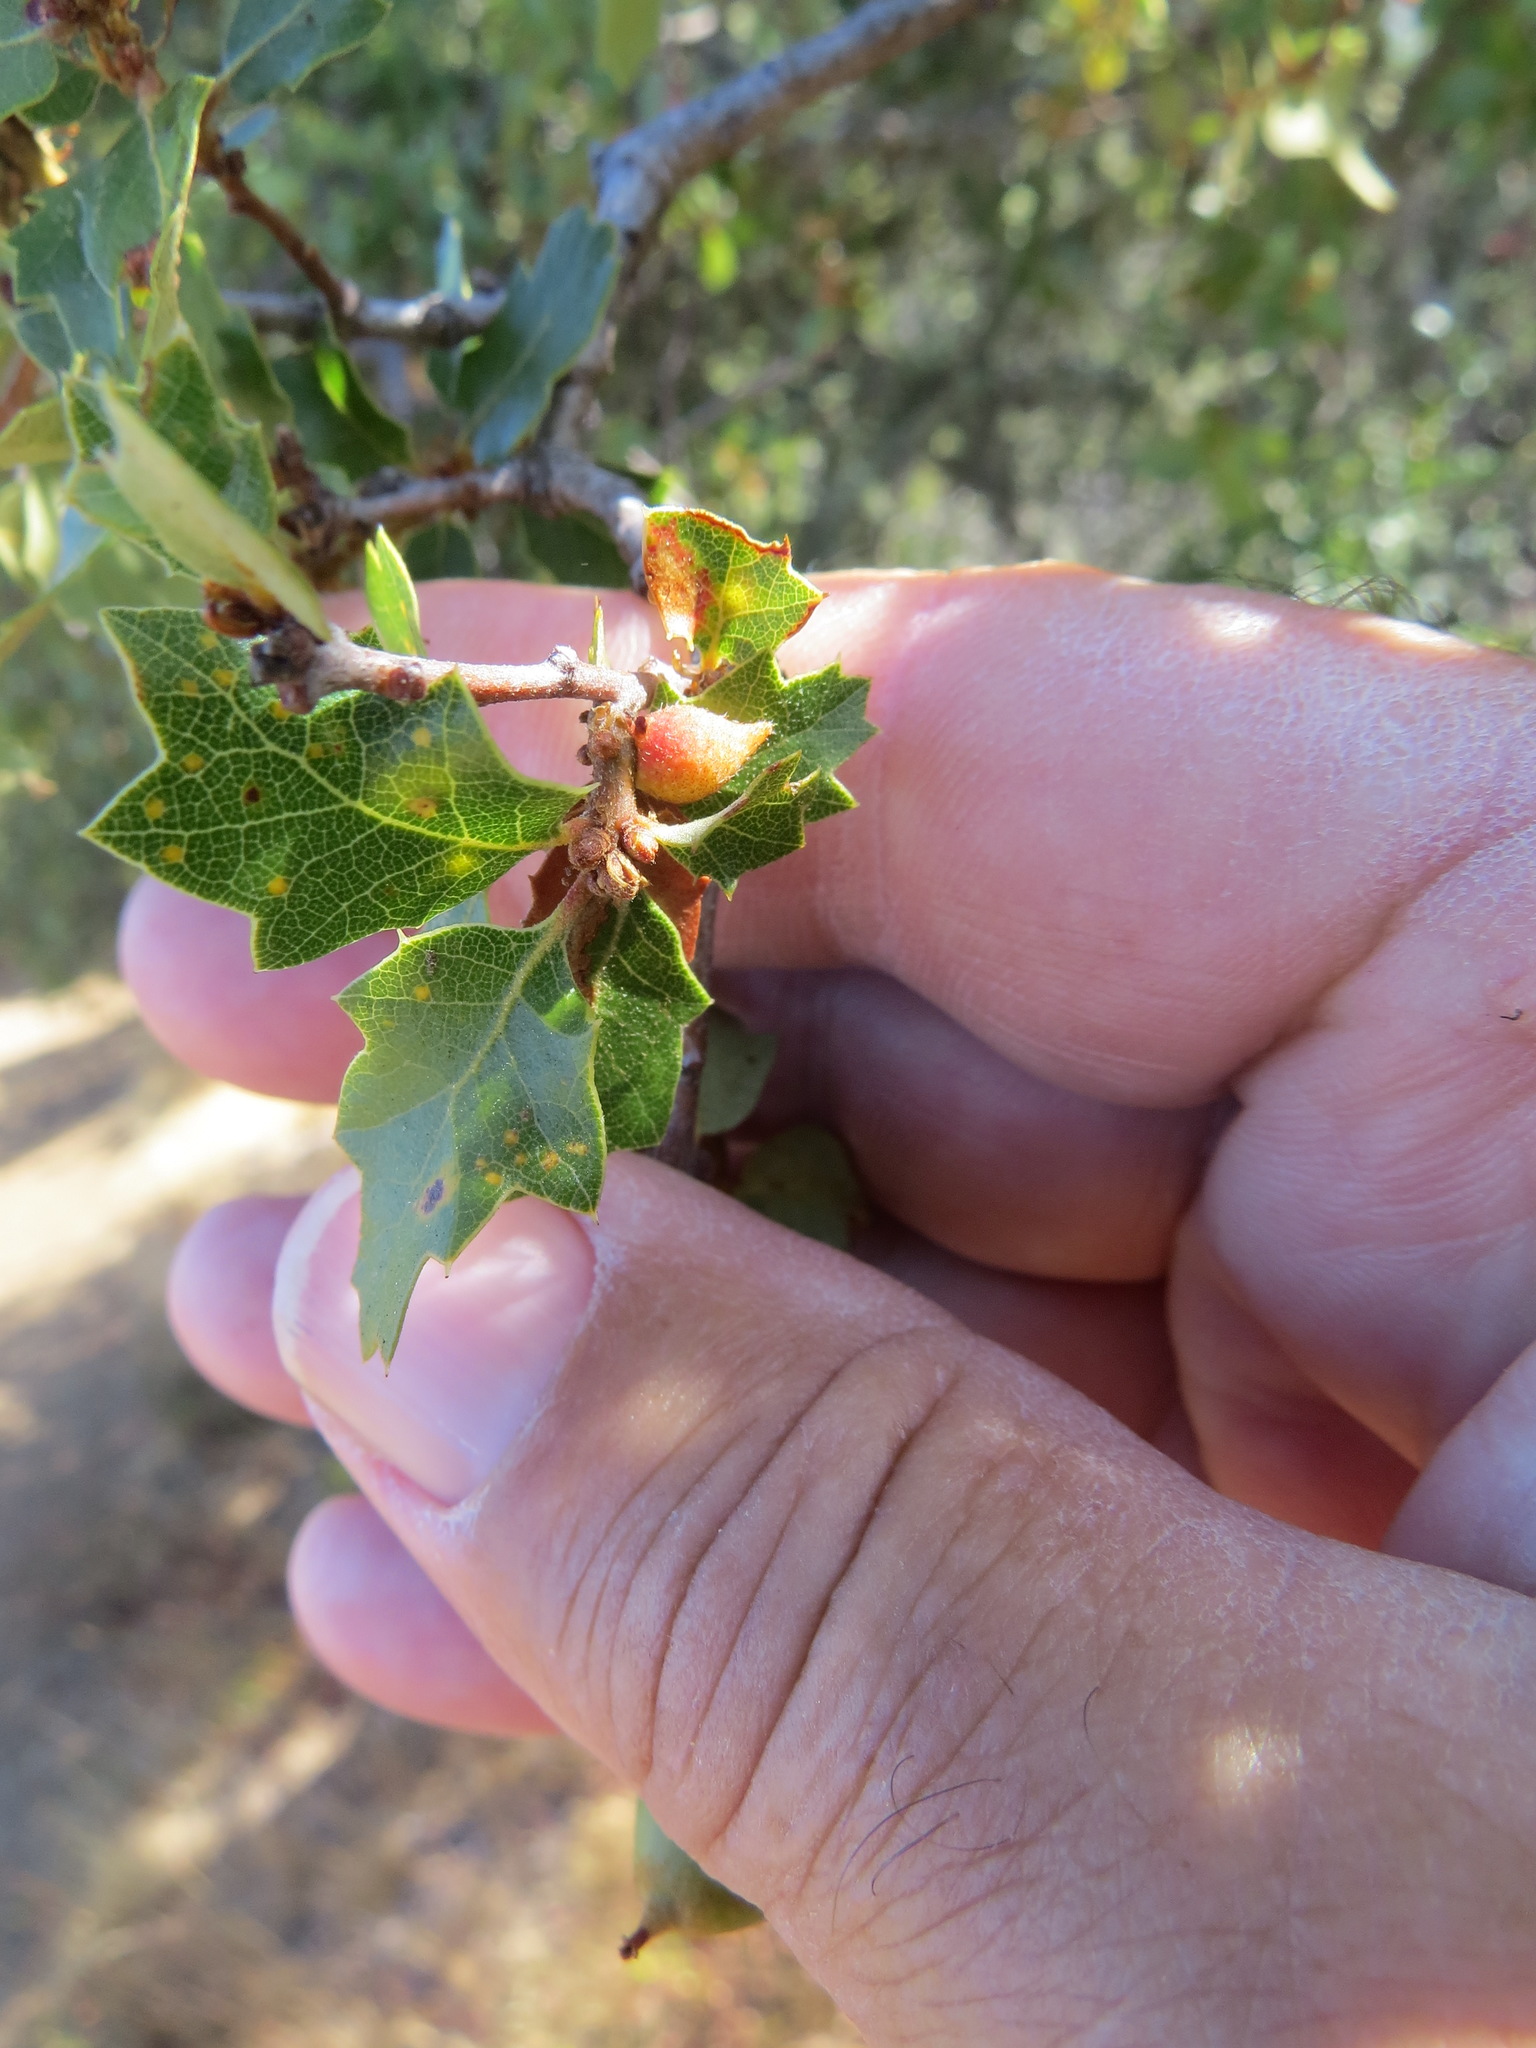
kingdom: Animalia
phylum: Arthropoda
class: Insecta
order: Hymenoptera
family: Cynipidae
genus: Burnettweldia
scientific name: Burnettweldia
